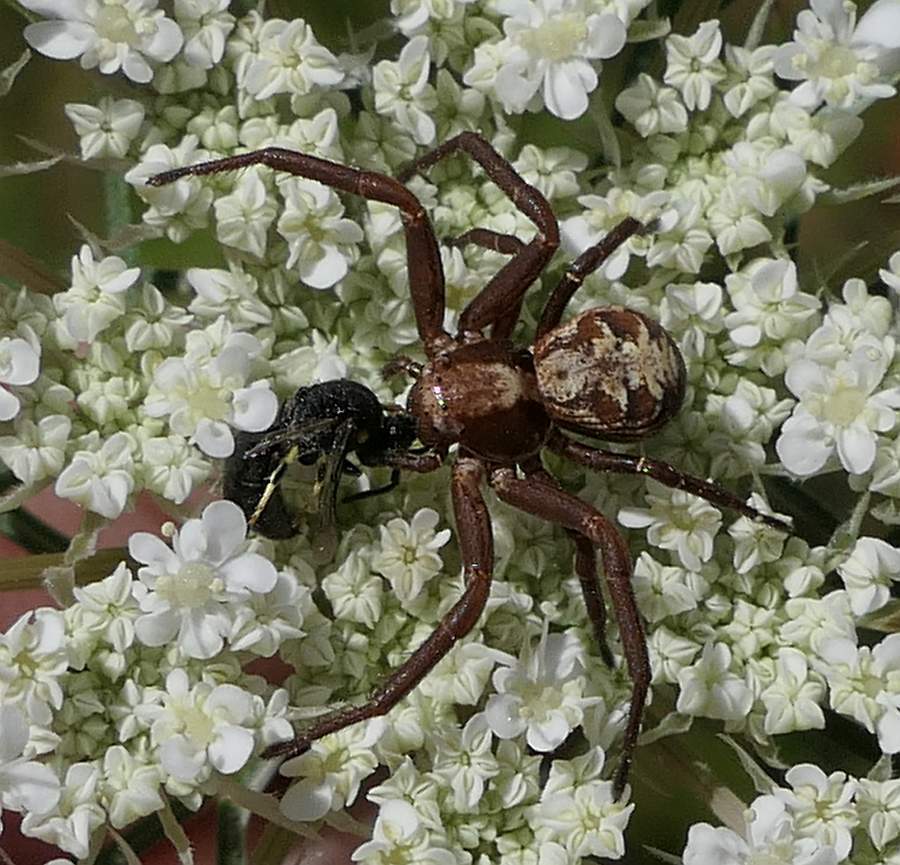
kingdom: Animalia
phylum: Arthropoda
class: Arachnida
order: Araneae
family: Thomisidae
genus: Xysticus
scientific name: Xysticus punctatus
